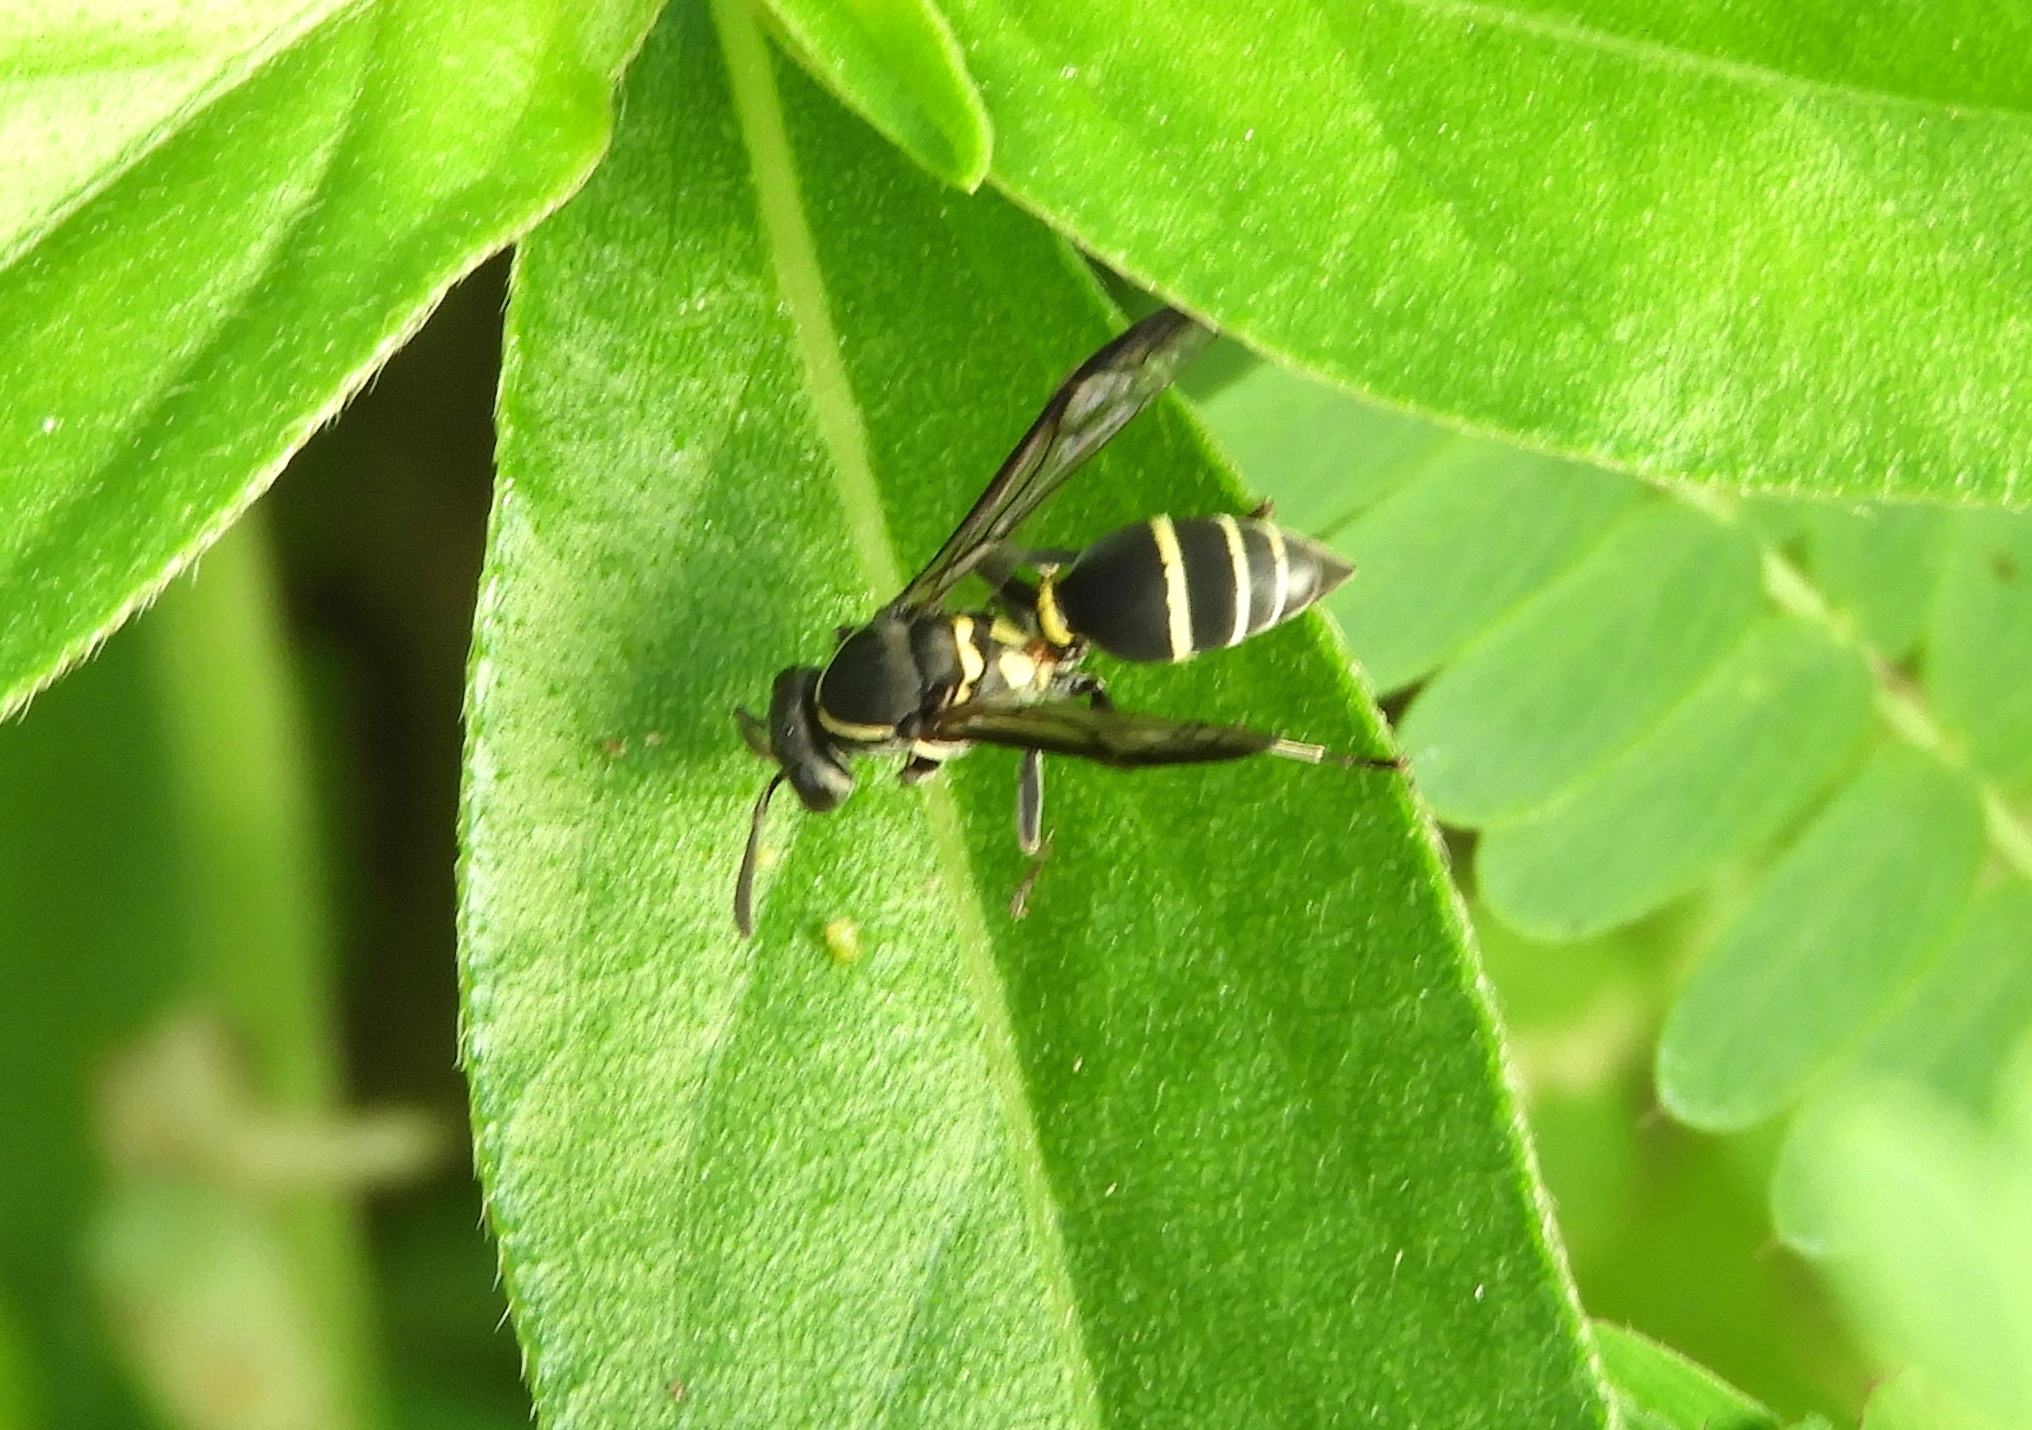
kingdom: Animalia
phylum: Arthropoda
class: Insecta
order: Hymenoptera
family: Vespidae
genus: Myrapetra
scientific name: Myrapetra
